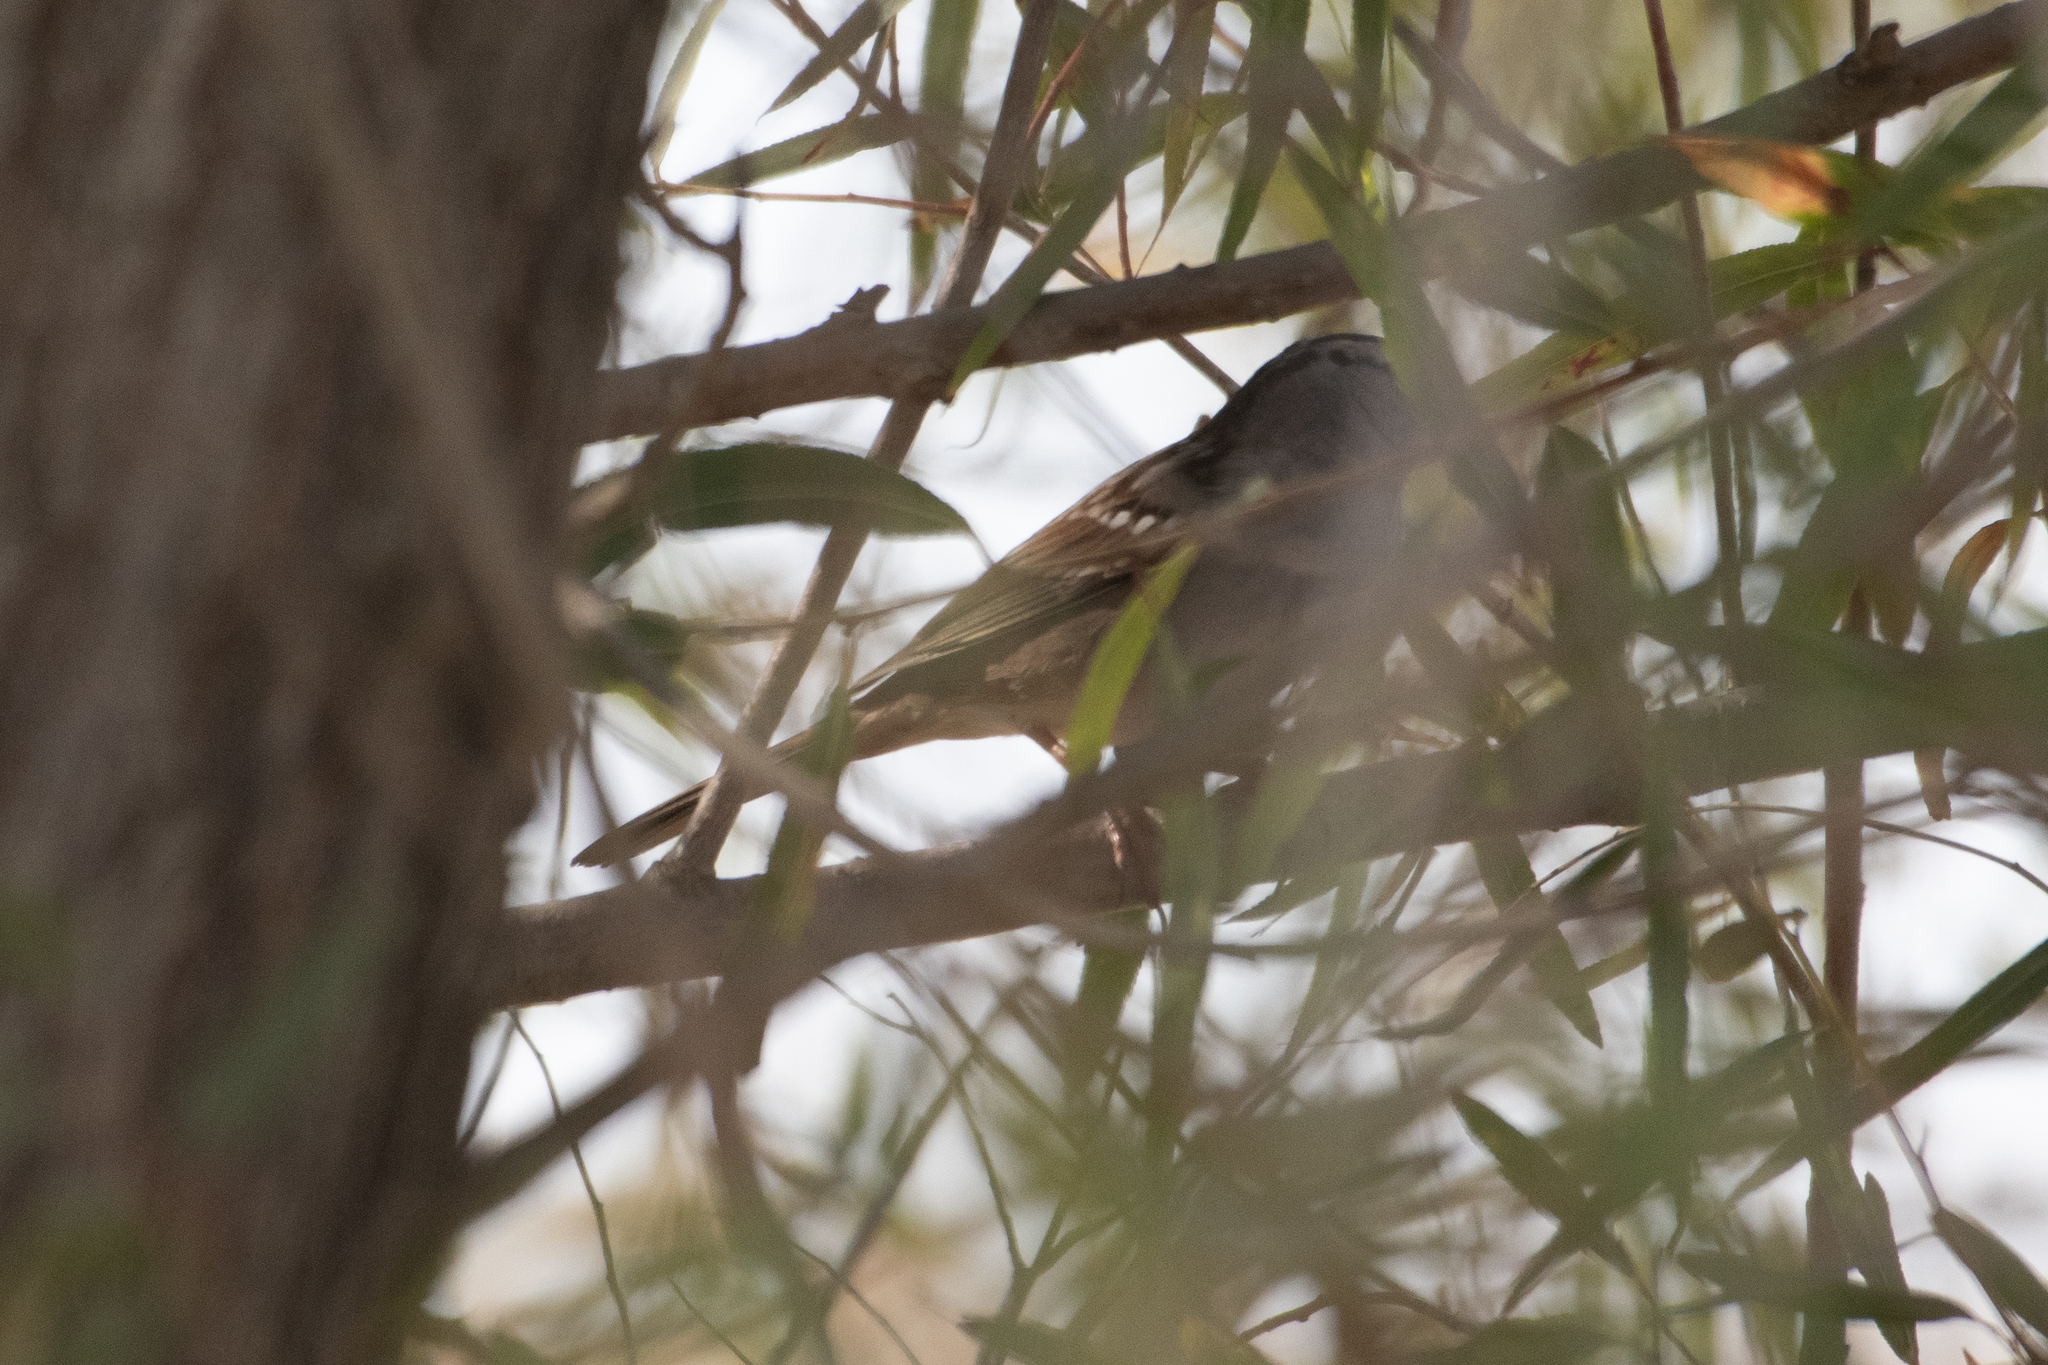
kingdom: Animalia
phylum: Chordata
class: Aves
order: Passeriformes
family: Passerellidae
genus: Zonotrichia
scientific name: Zonotrichia leucophrys
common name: White-crowned sparrow
